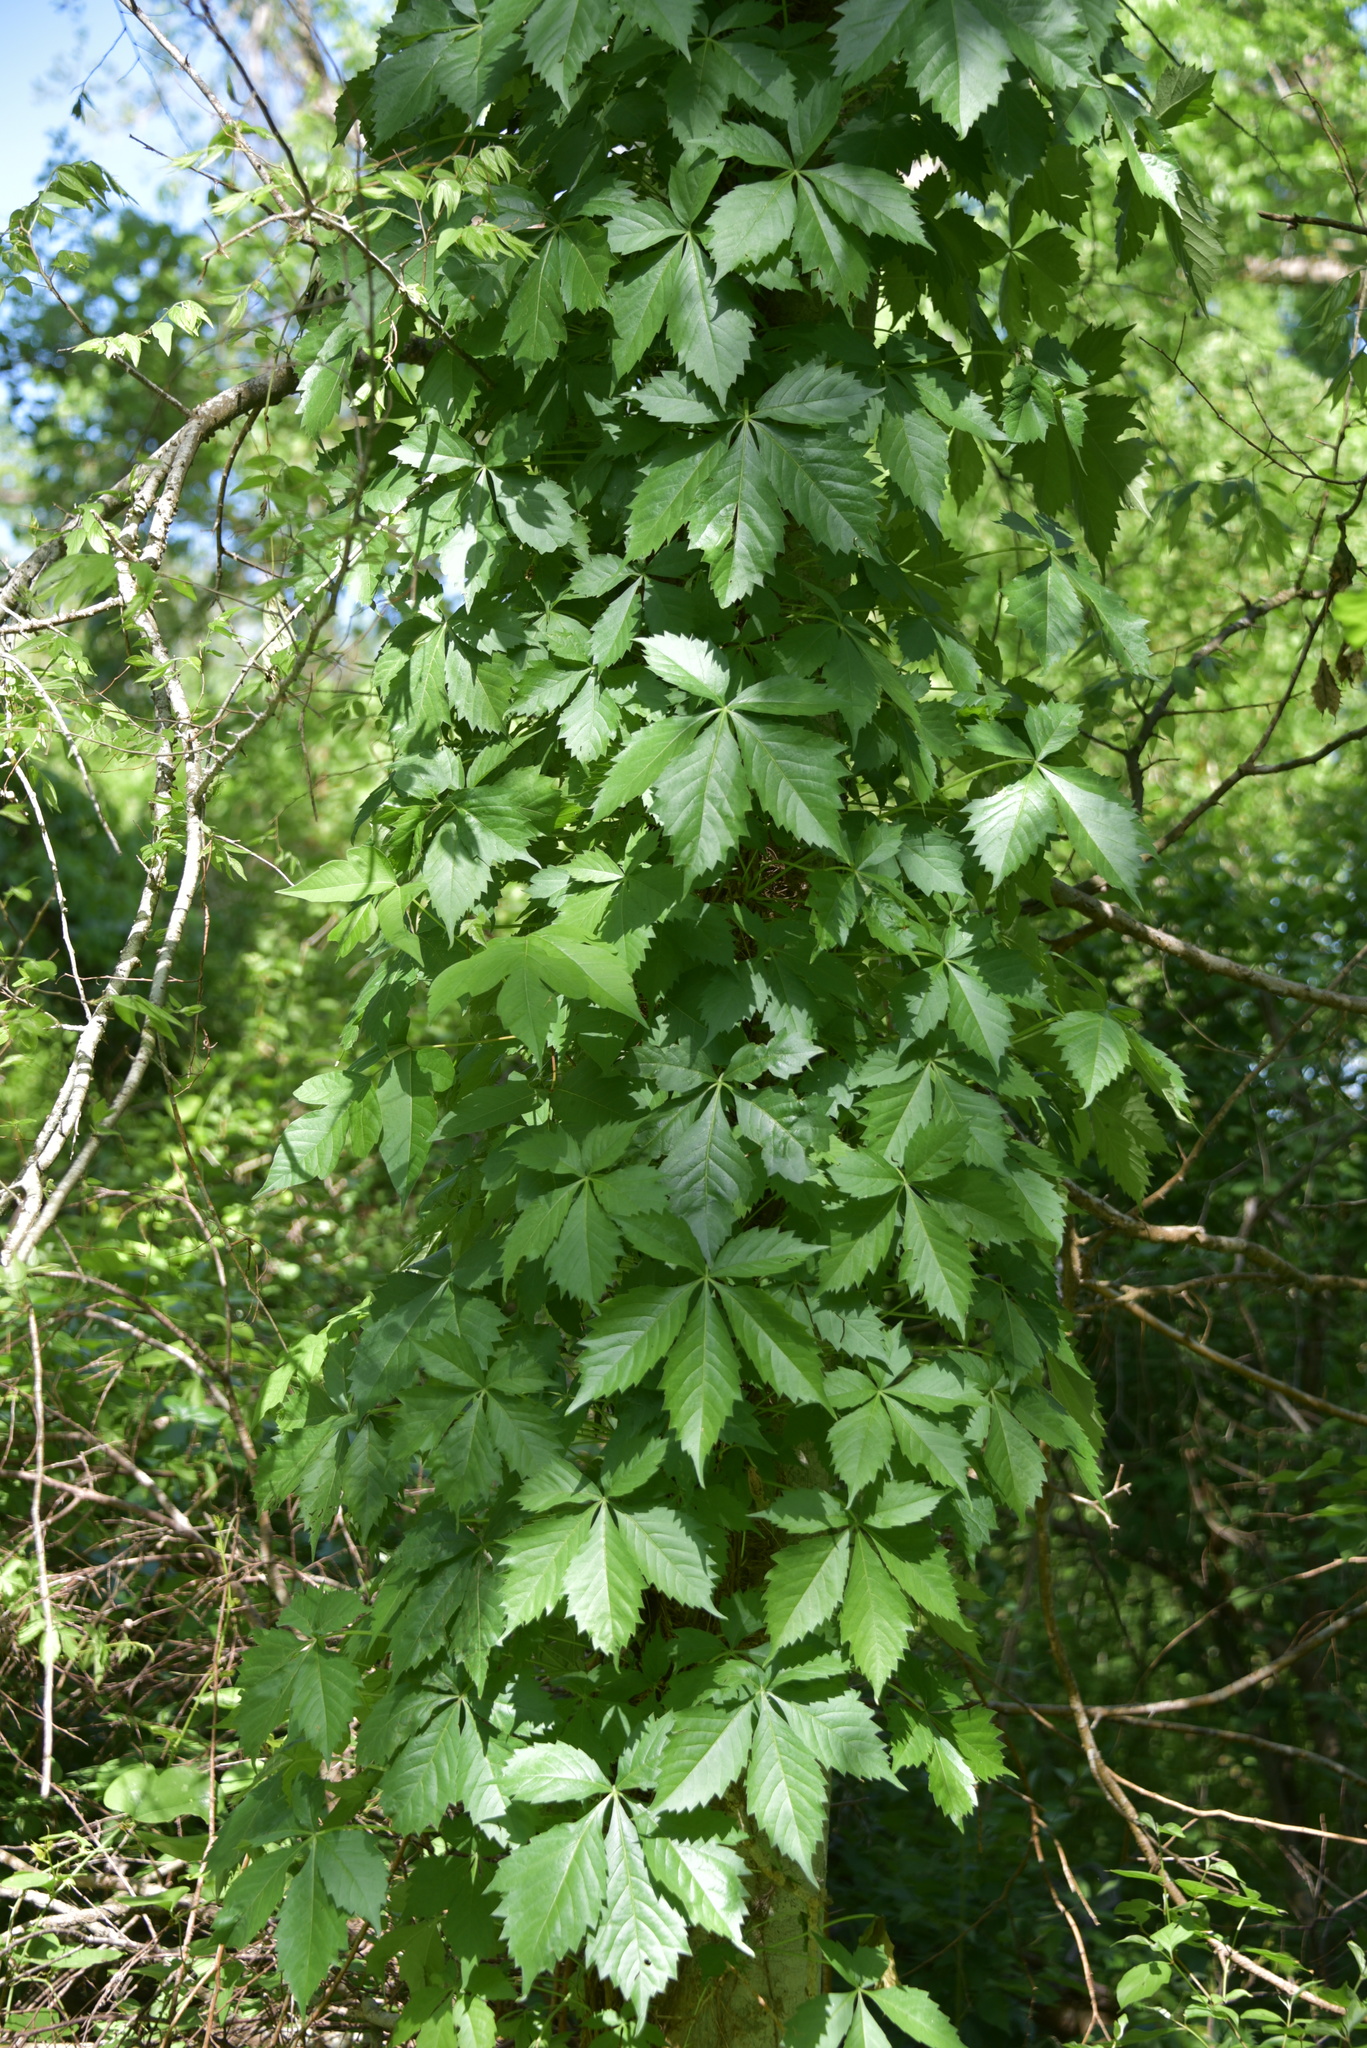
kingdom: Plantae
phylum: Tracheophyta
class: Magnoliopsida
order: Vitales
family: Vitaceae
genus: Parthenocissus
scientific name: Parthenocissus quinquefolia
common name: Virginia-creeper
